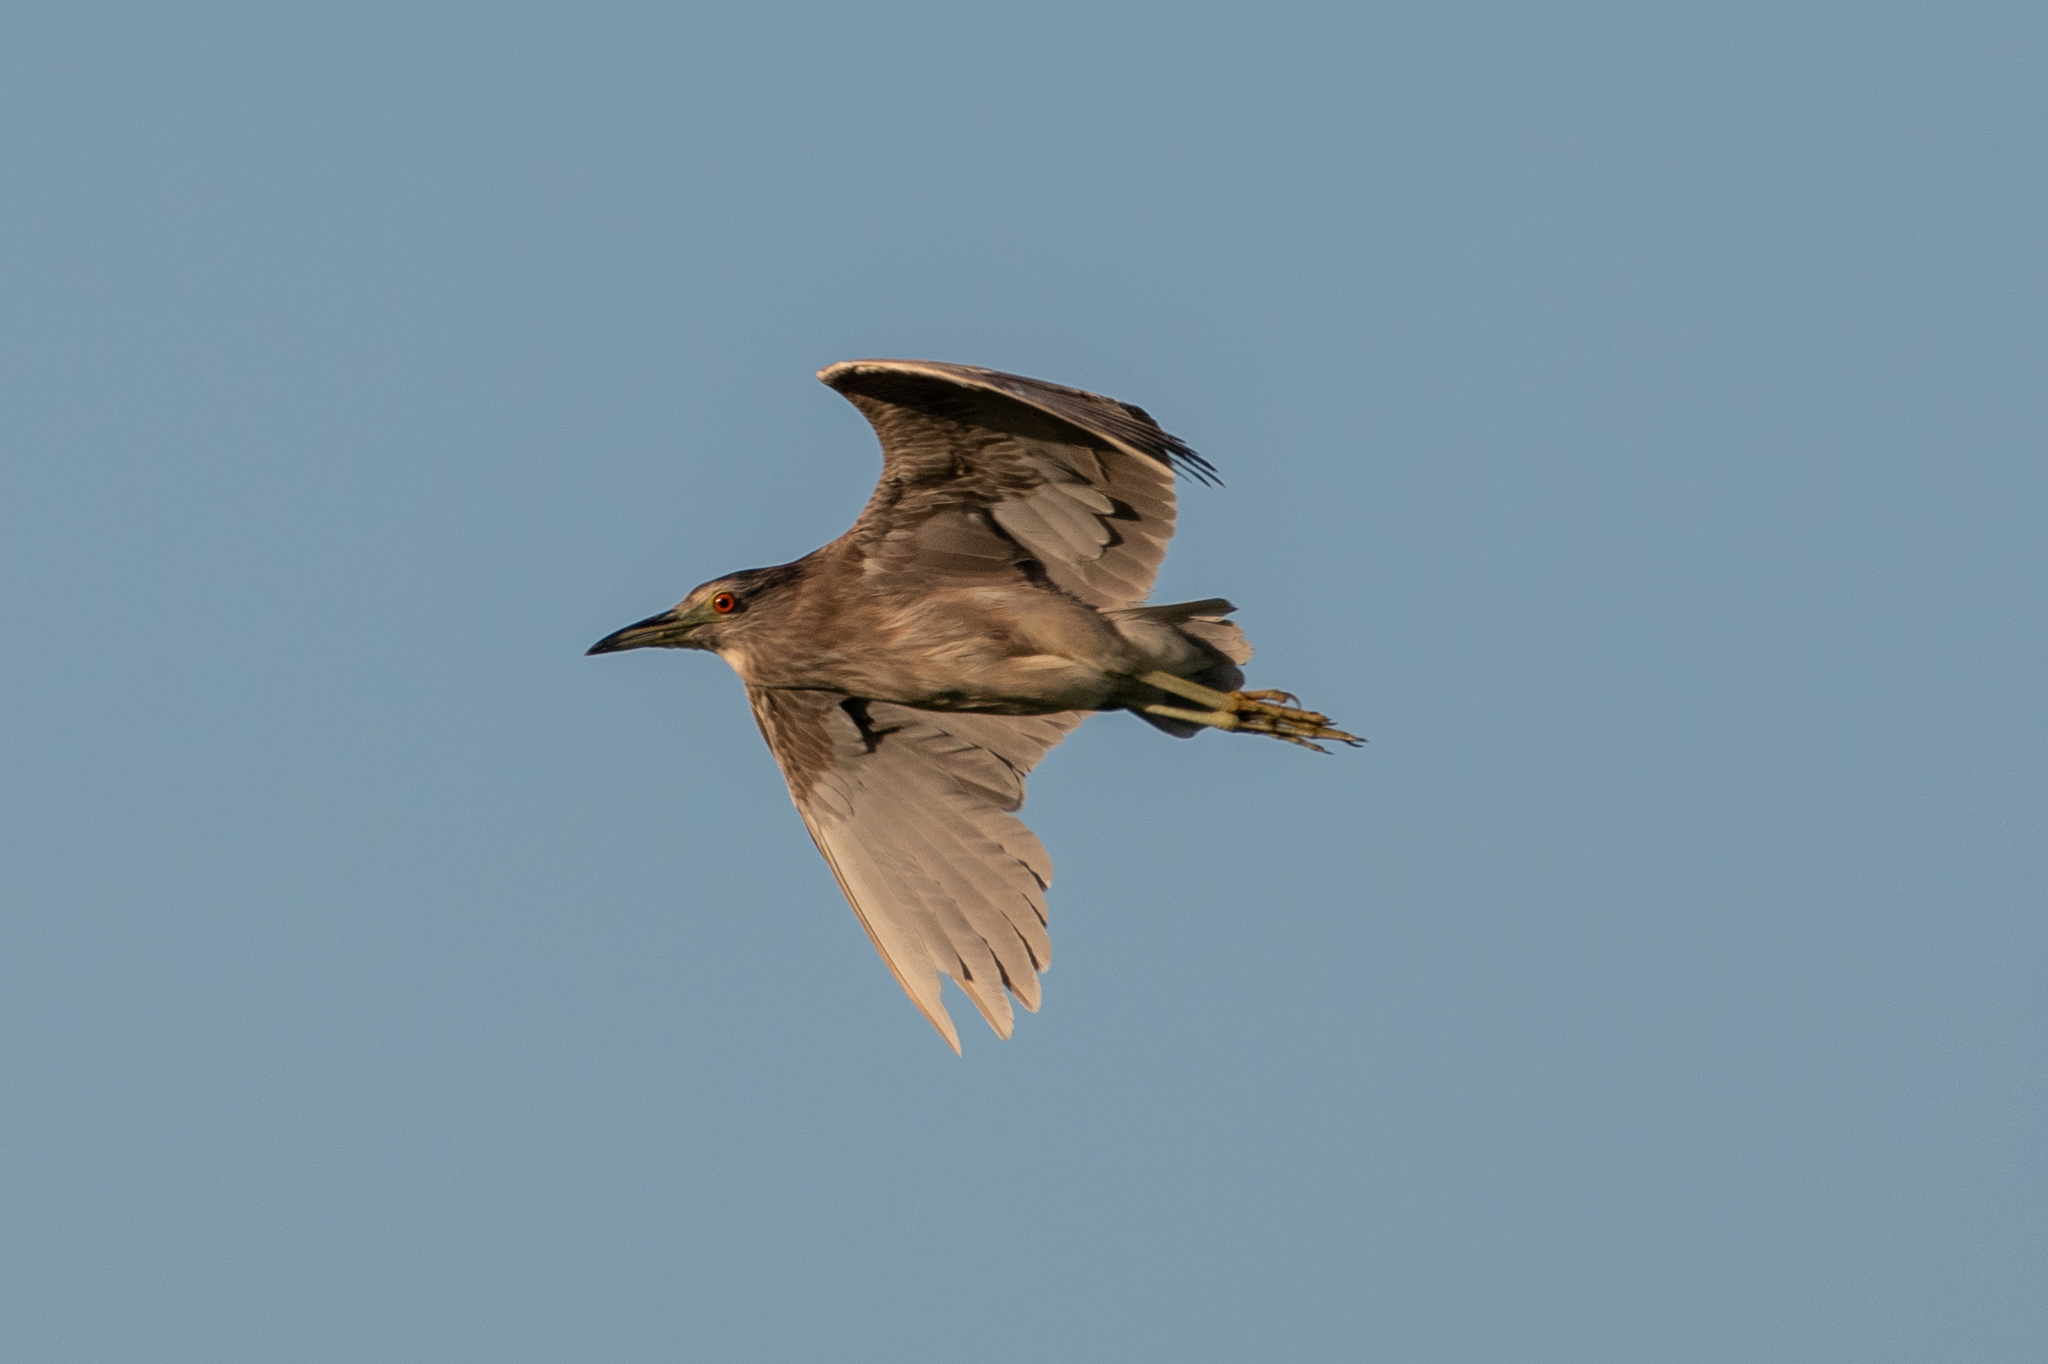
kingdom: Animalia
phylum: Chordata
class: Aves
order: Pelecaniformes
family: Ardeidae
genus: Nycticorax
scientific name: Nycticorax nycticorax
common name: Black-crowned night heron
